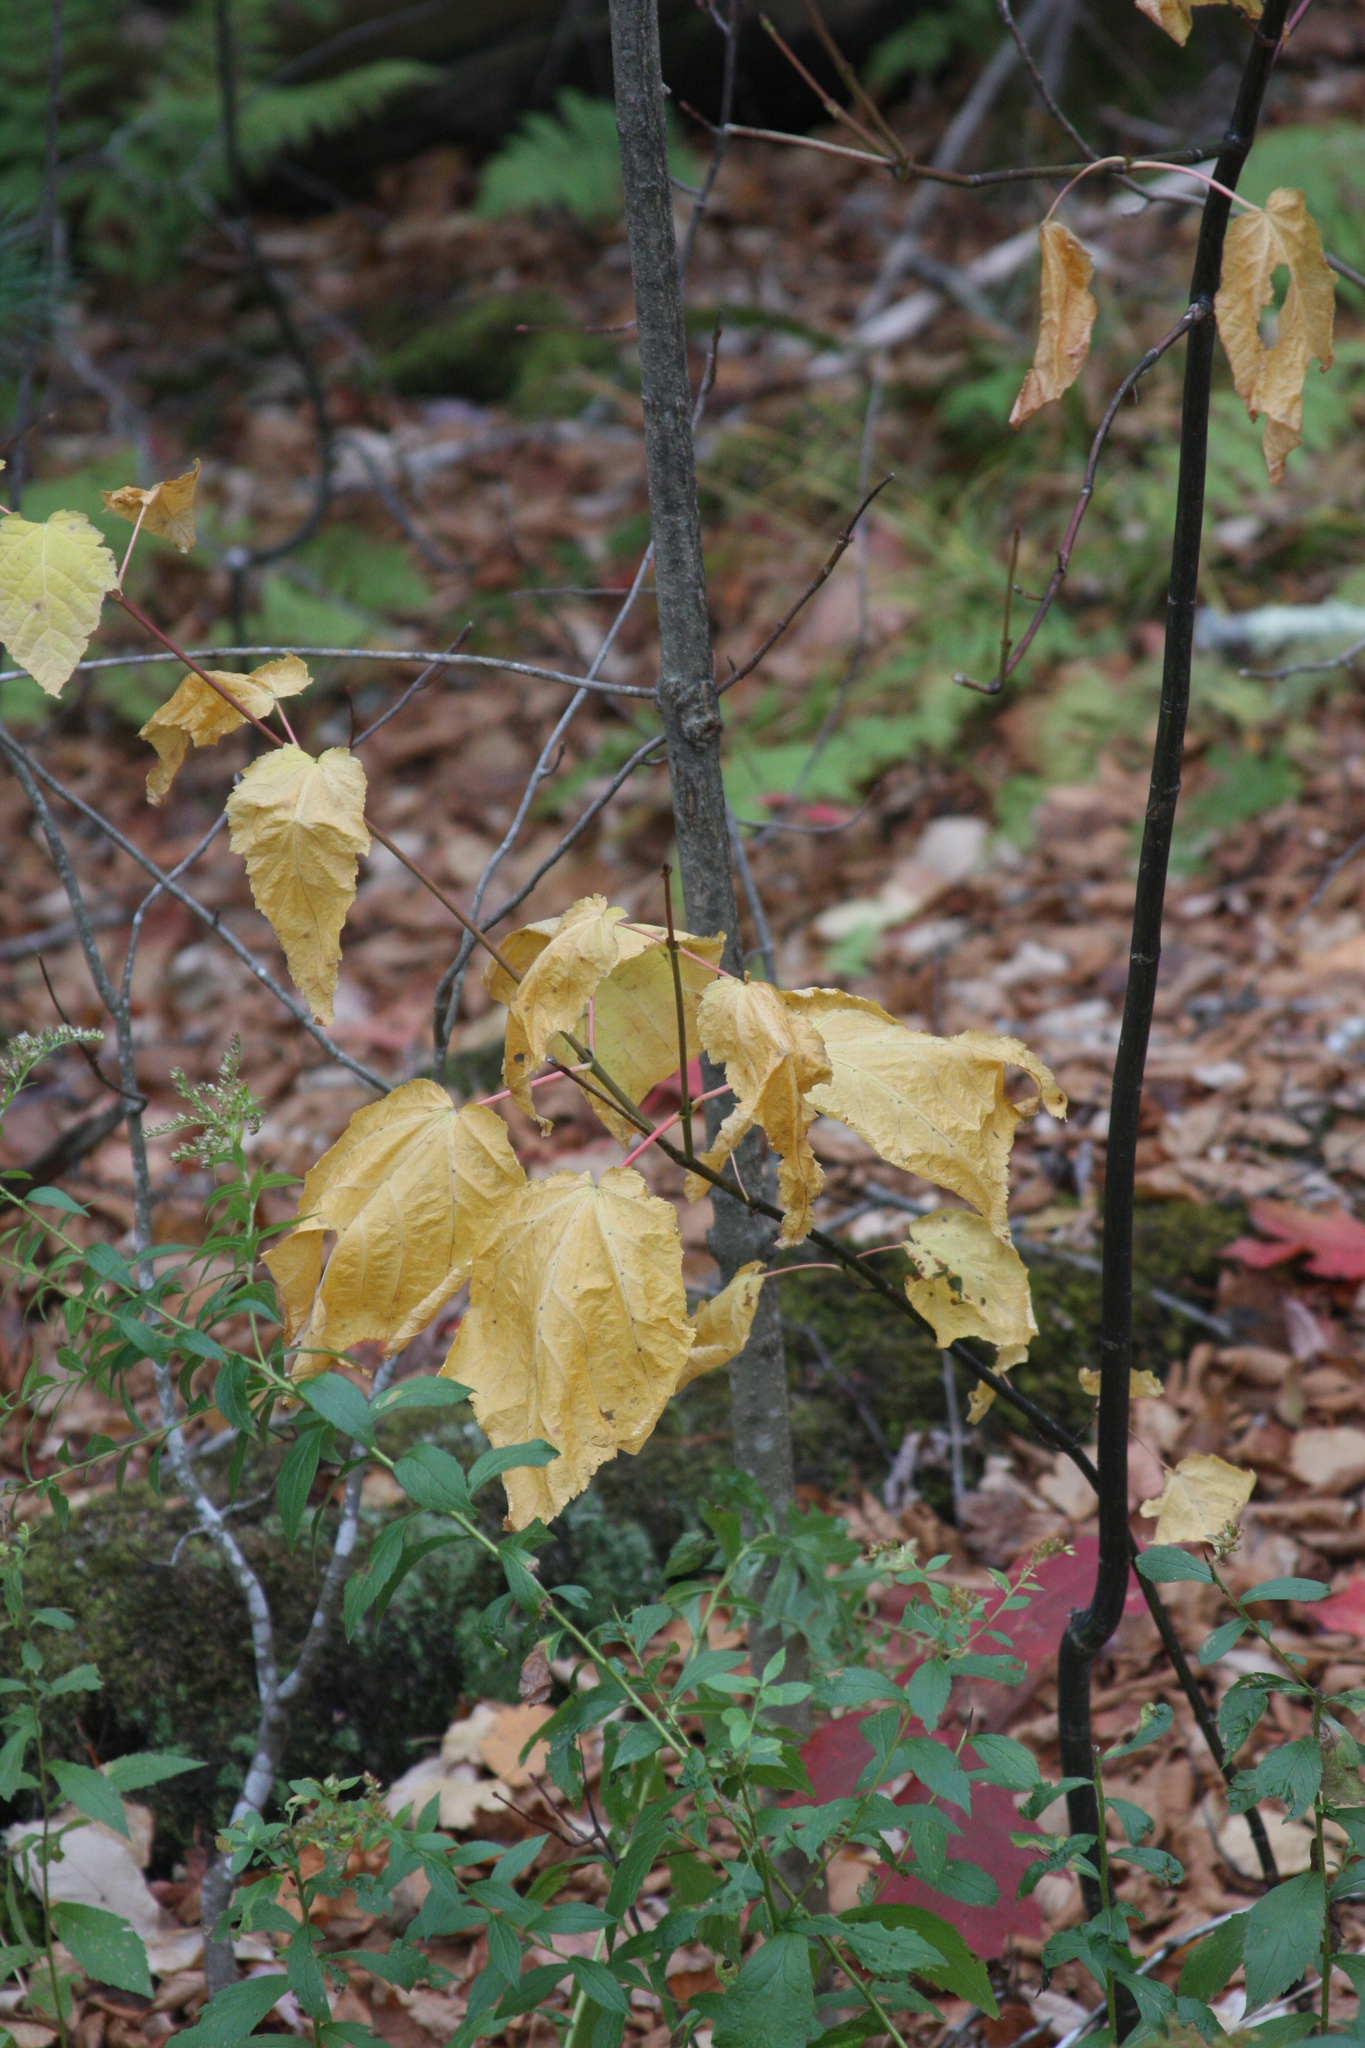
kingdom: Plantae
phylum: Tracheophyta
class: Magnoliopsida
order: Sapindales
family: Sapindaceae
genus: Acer
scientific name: Acer pensylvanicum
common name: Moosewood
